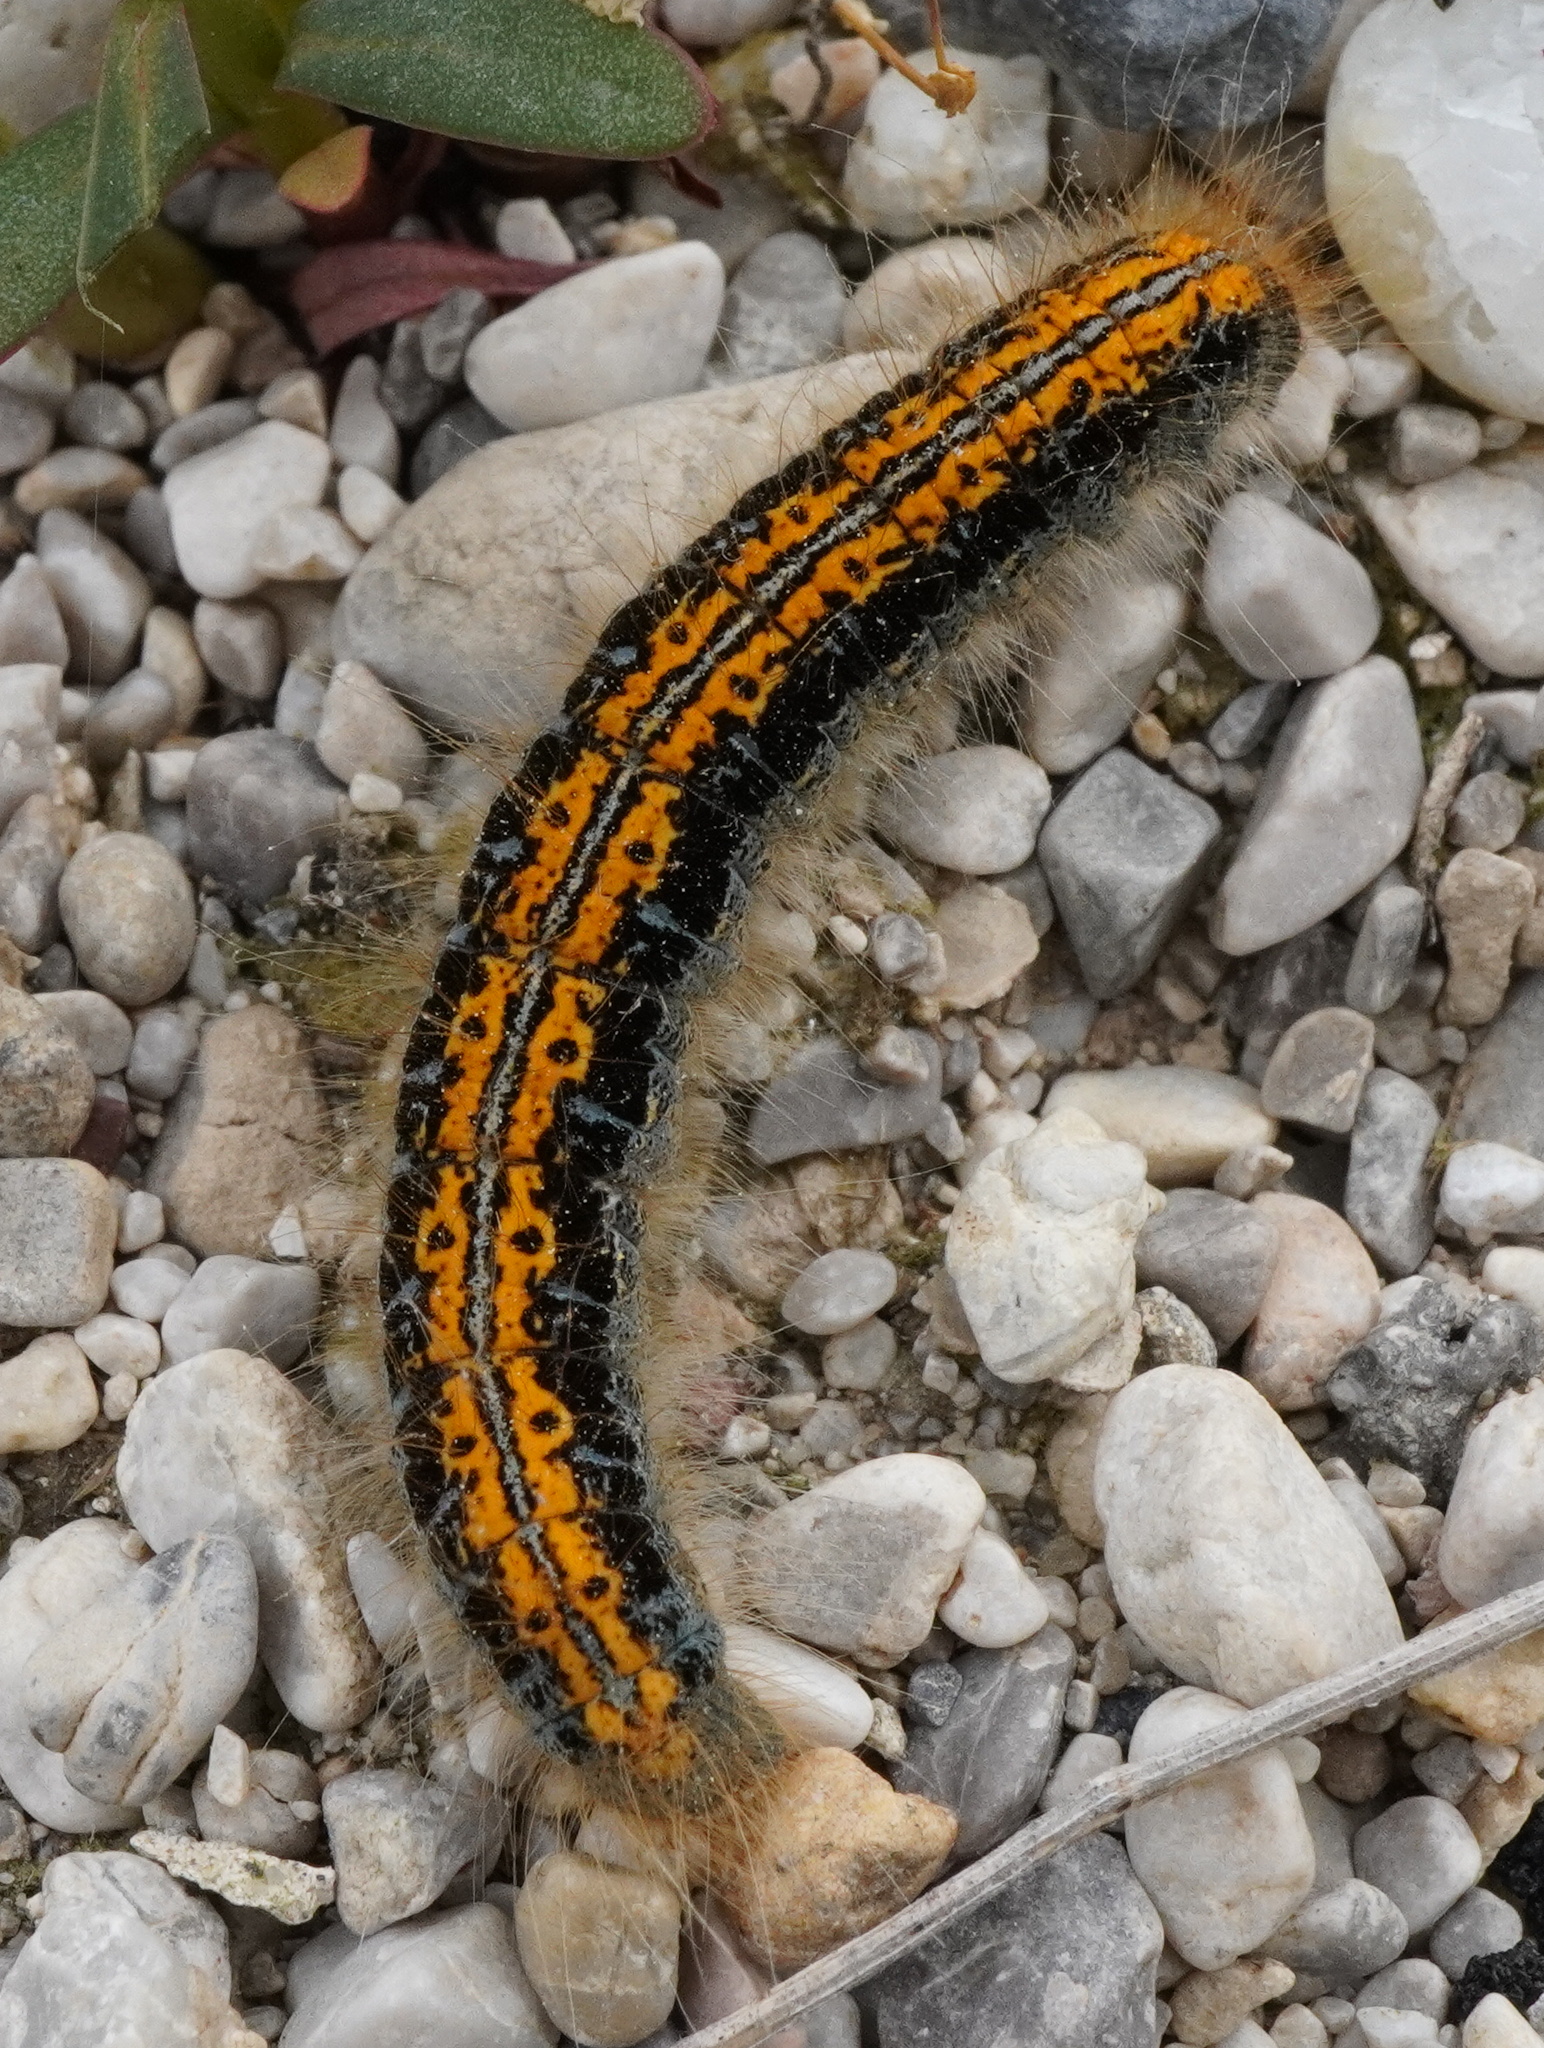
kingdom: Animalia
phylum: Arthropoda
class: Insecta
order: Lepidoptera
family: Lasiocampidae
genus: Malacosoma
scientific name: Malacosoma castrense
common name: Ground lackey
